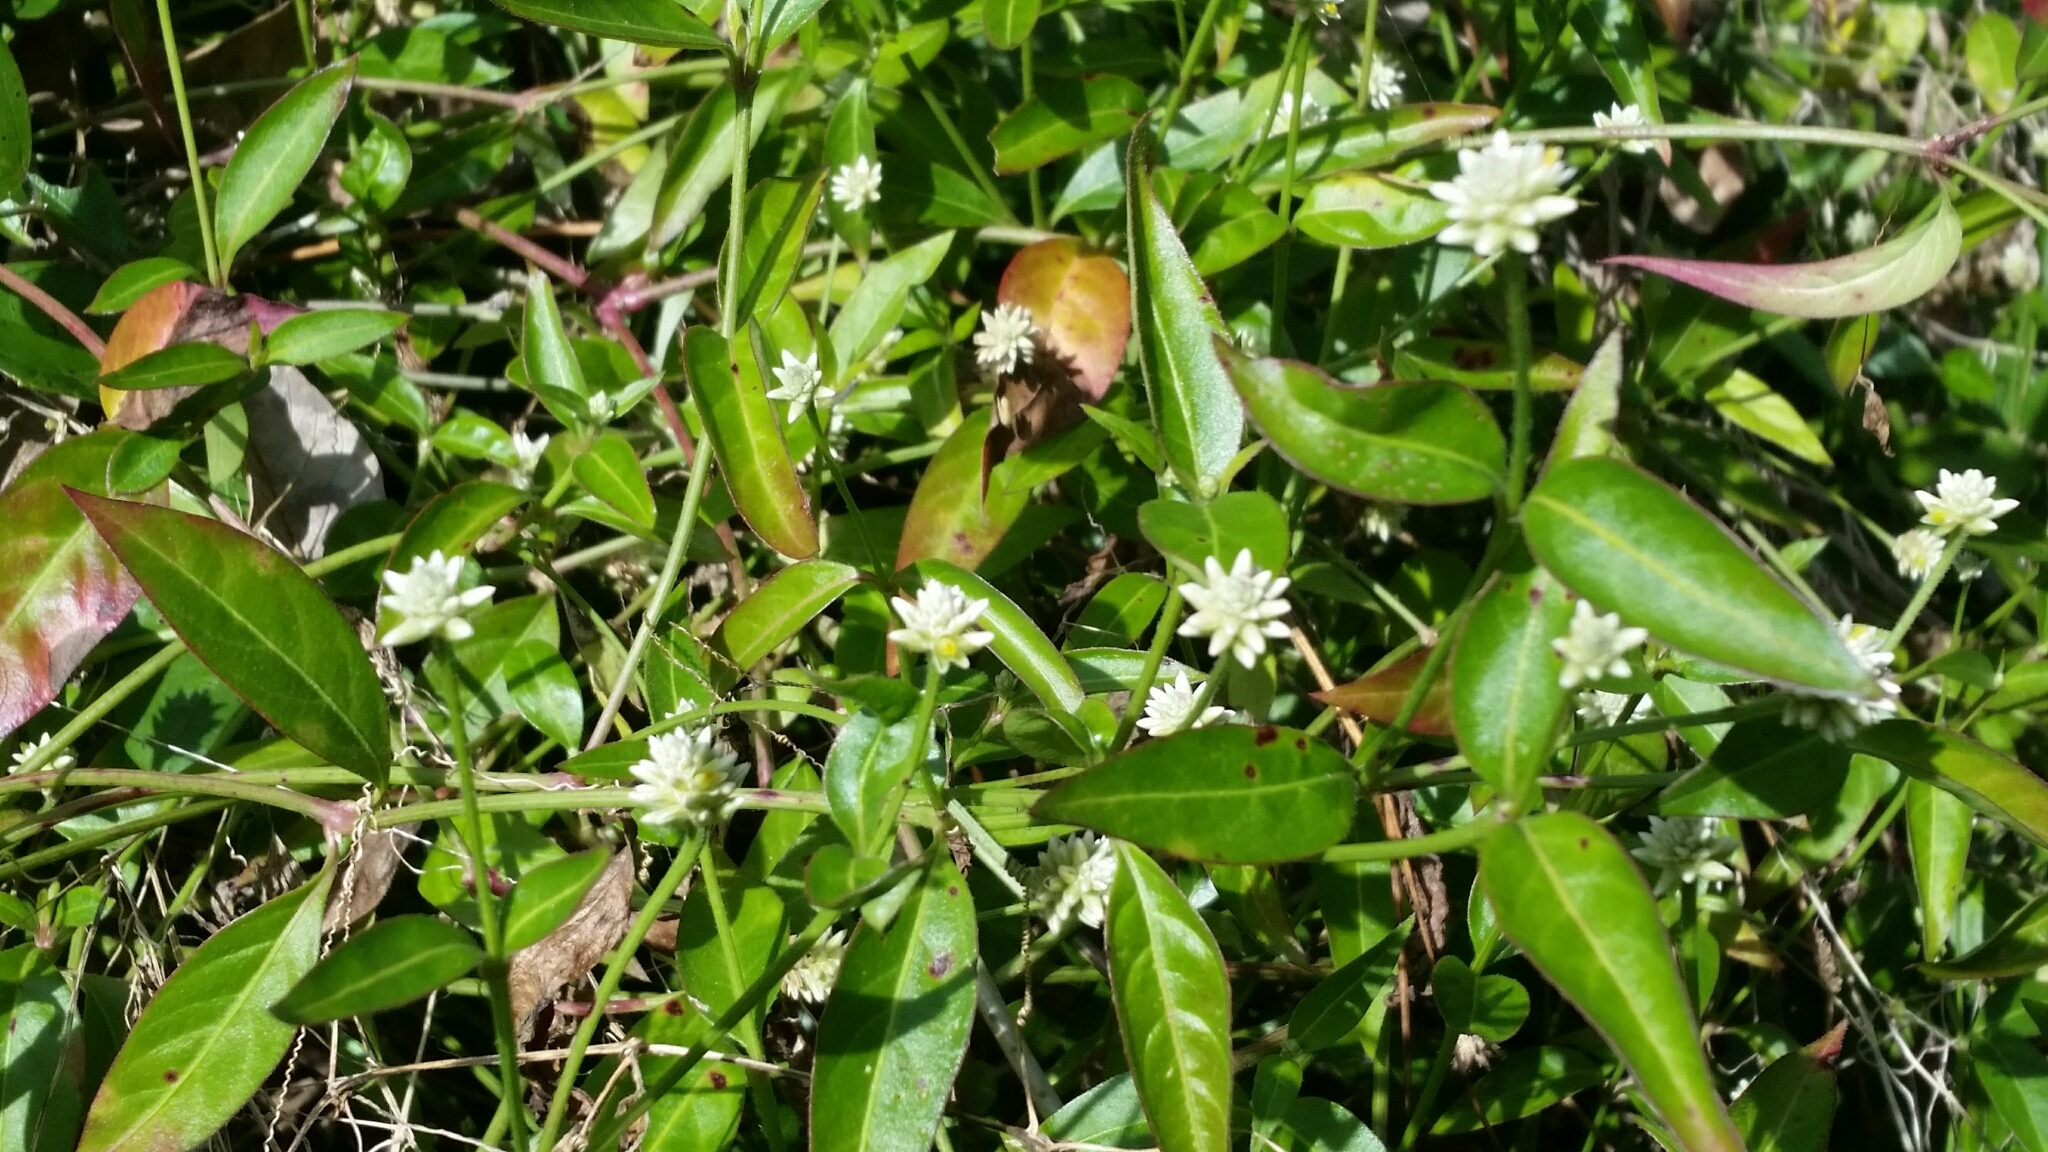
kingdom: Plantae
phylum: Tracheophyta
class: Magnoliopsida
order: Caryophyllales
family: Amaranthaceae
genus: Alternanthera
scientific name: Alternanthera flavescens
